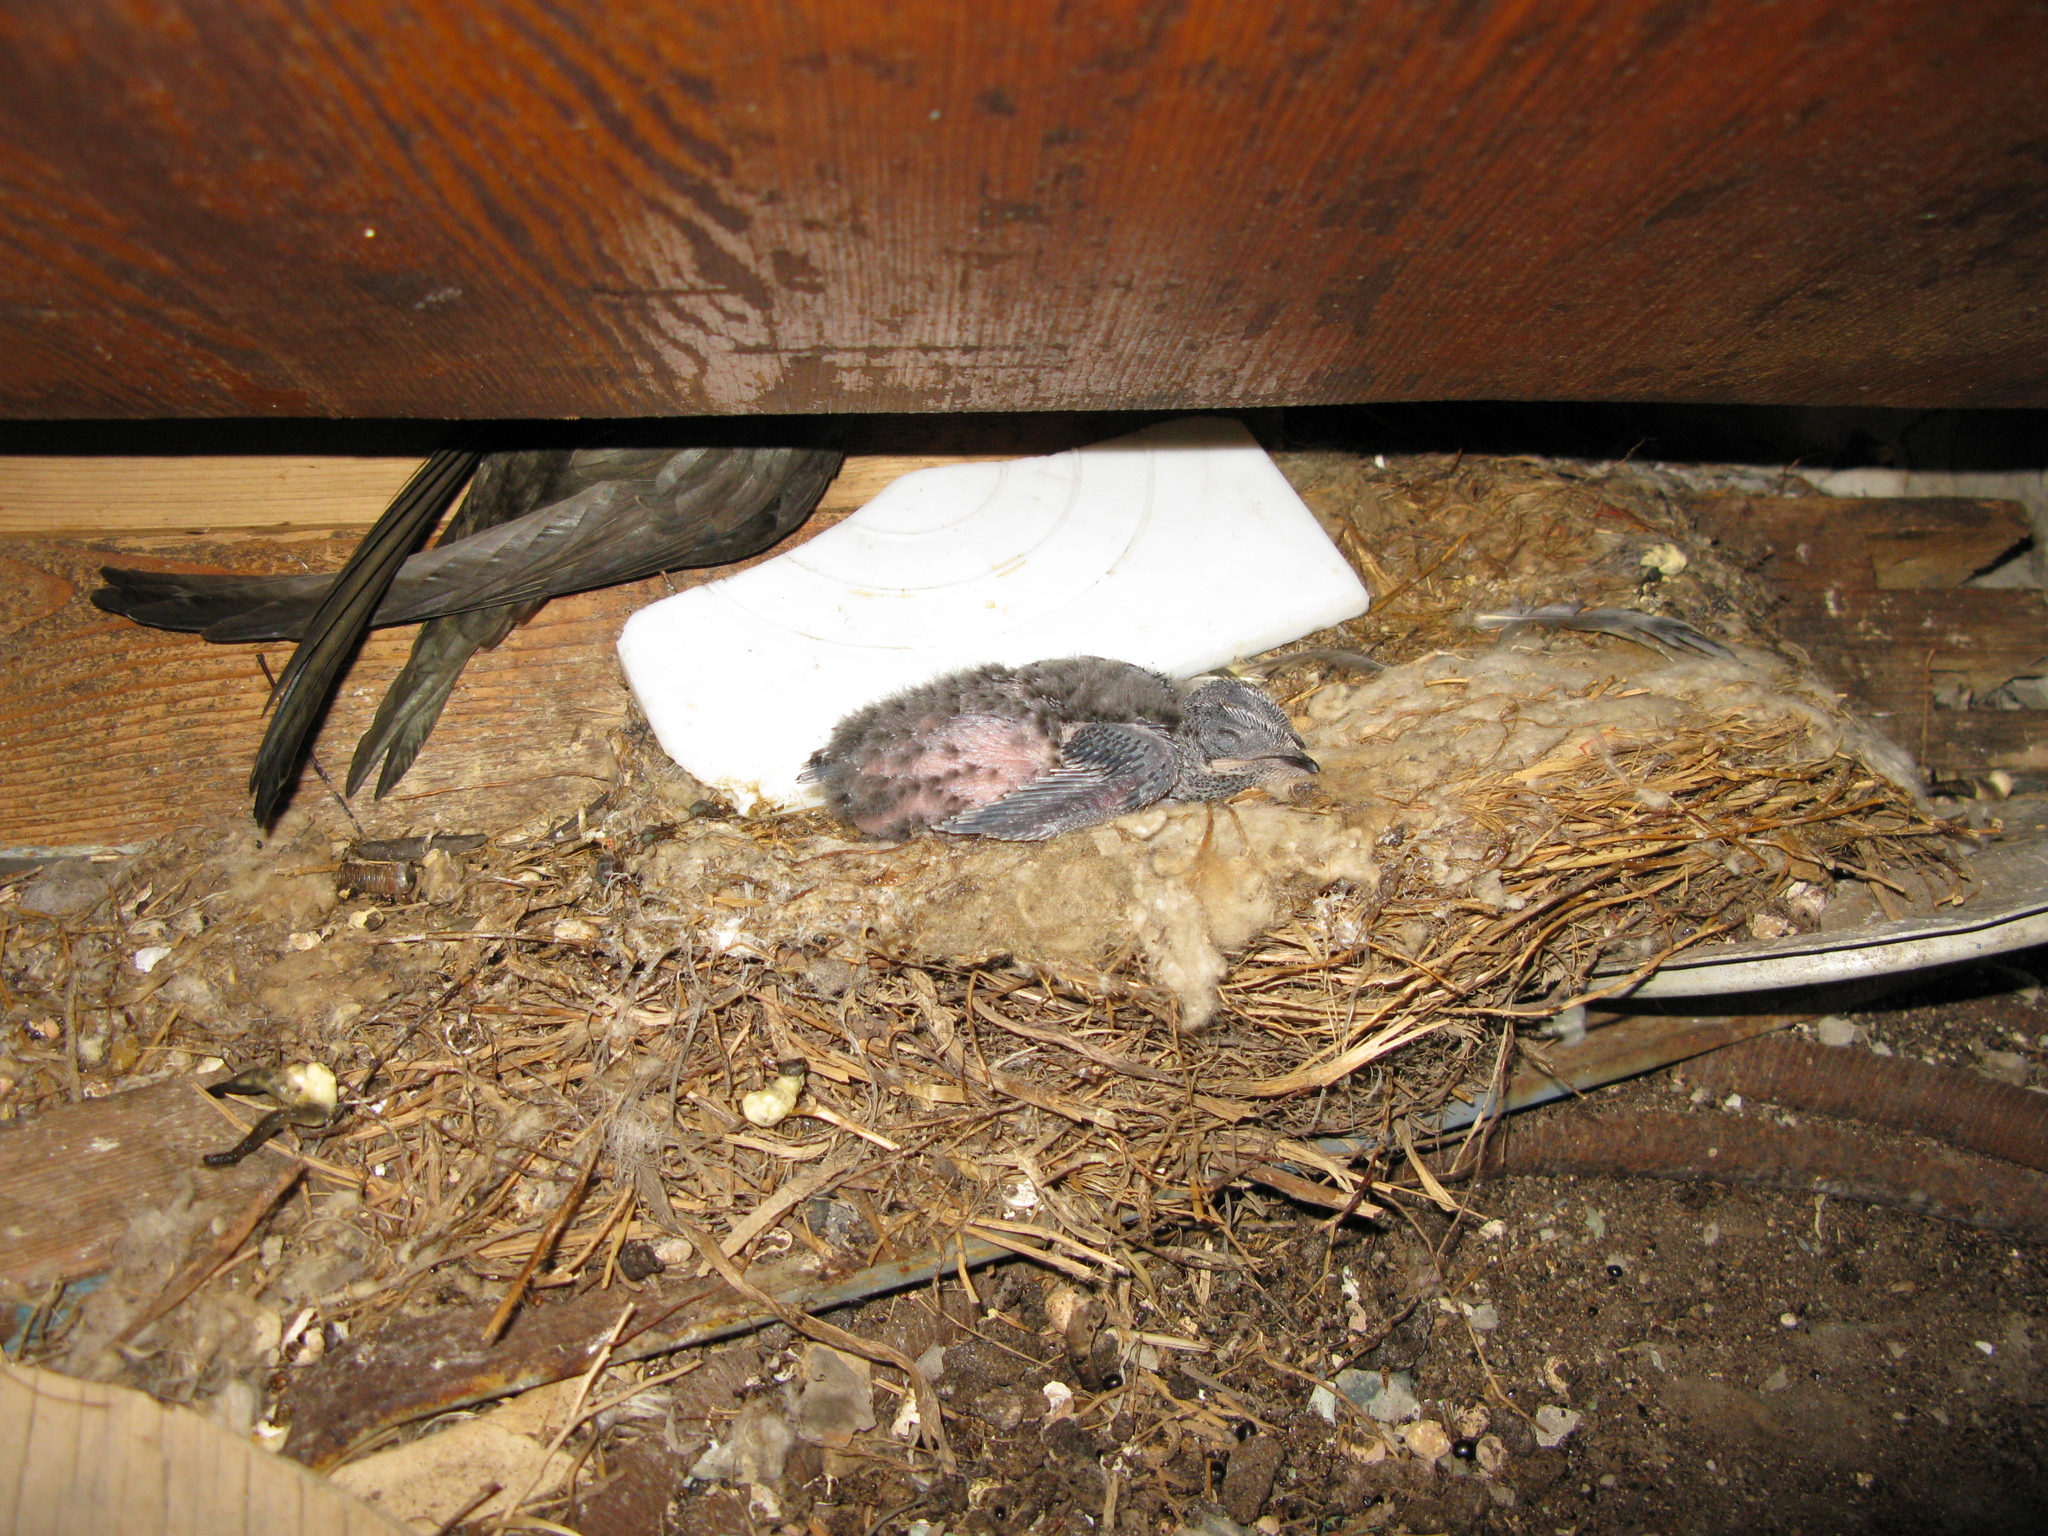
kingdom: Animalia
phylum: Chordata
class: Aves
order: Apodiformes
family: Apodidae
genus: Apus
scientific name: Apus apus
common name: Common swift
